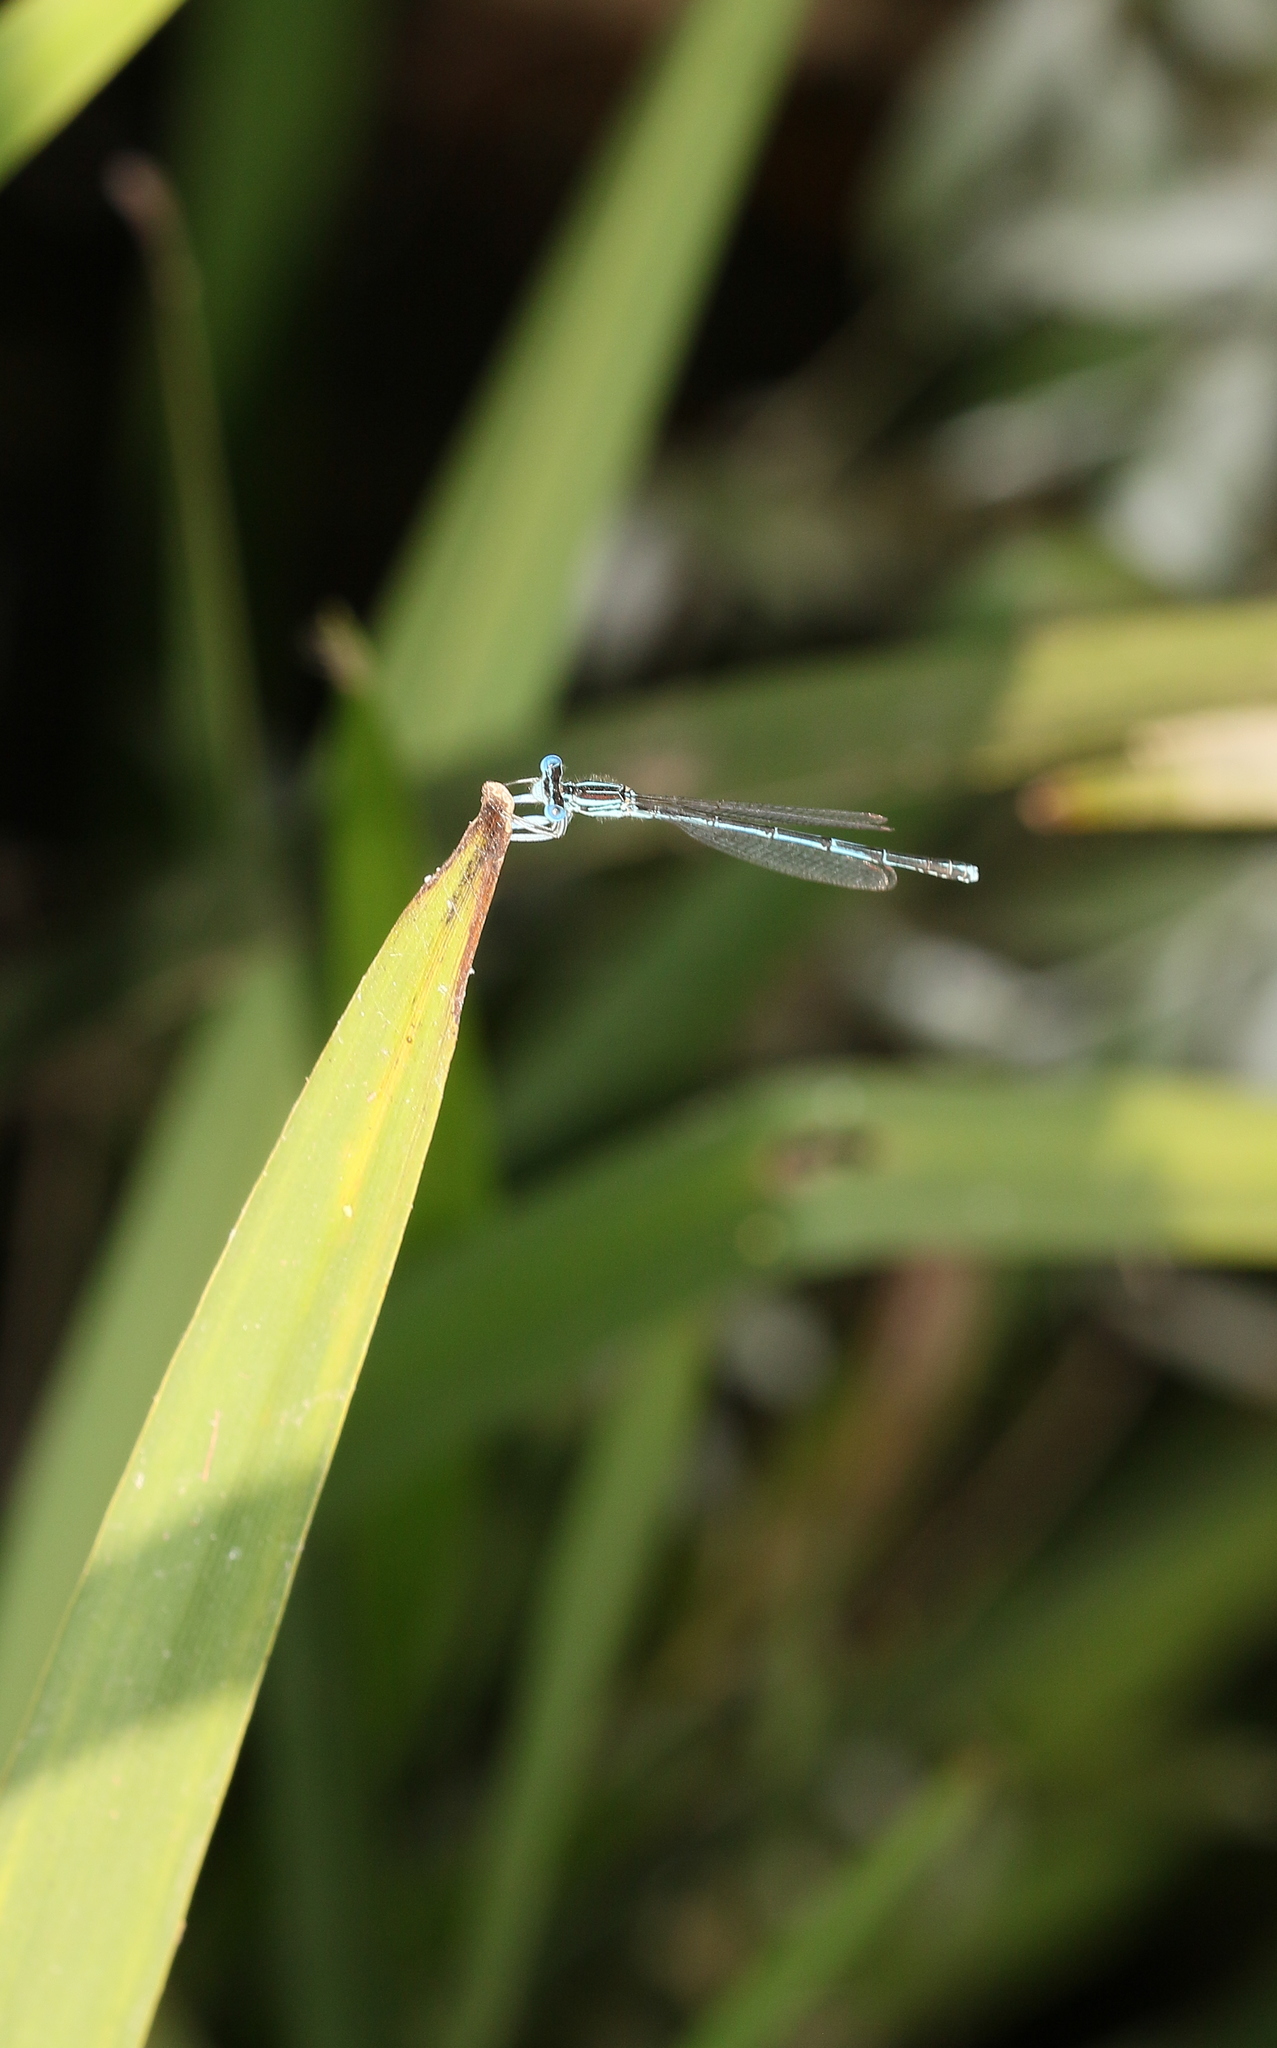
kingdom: Animalia
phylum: Arthropoda
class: Insecta
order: Odonata
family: Platycnemididae
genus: Platycnemis
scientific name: Platycnemis pennipes
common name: White-legged damselfly
